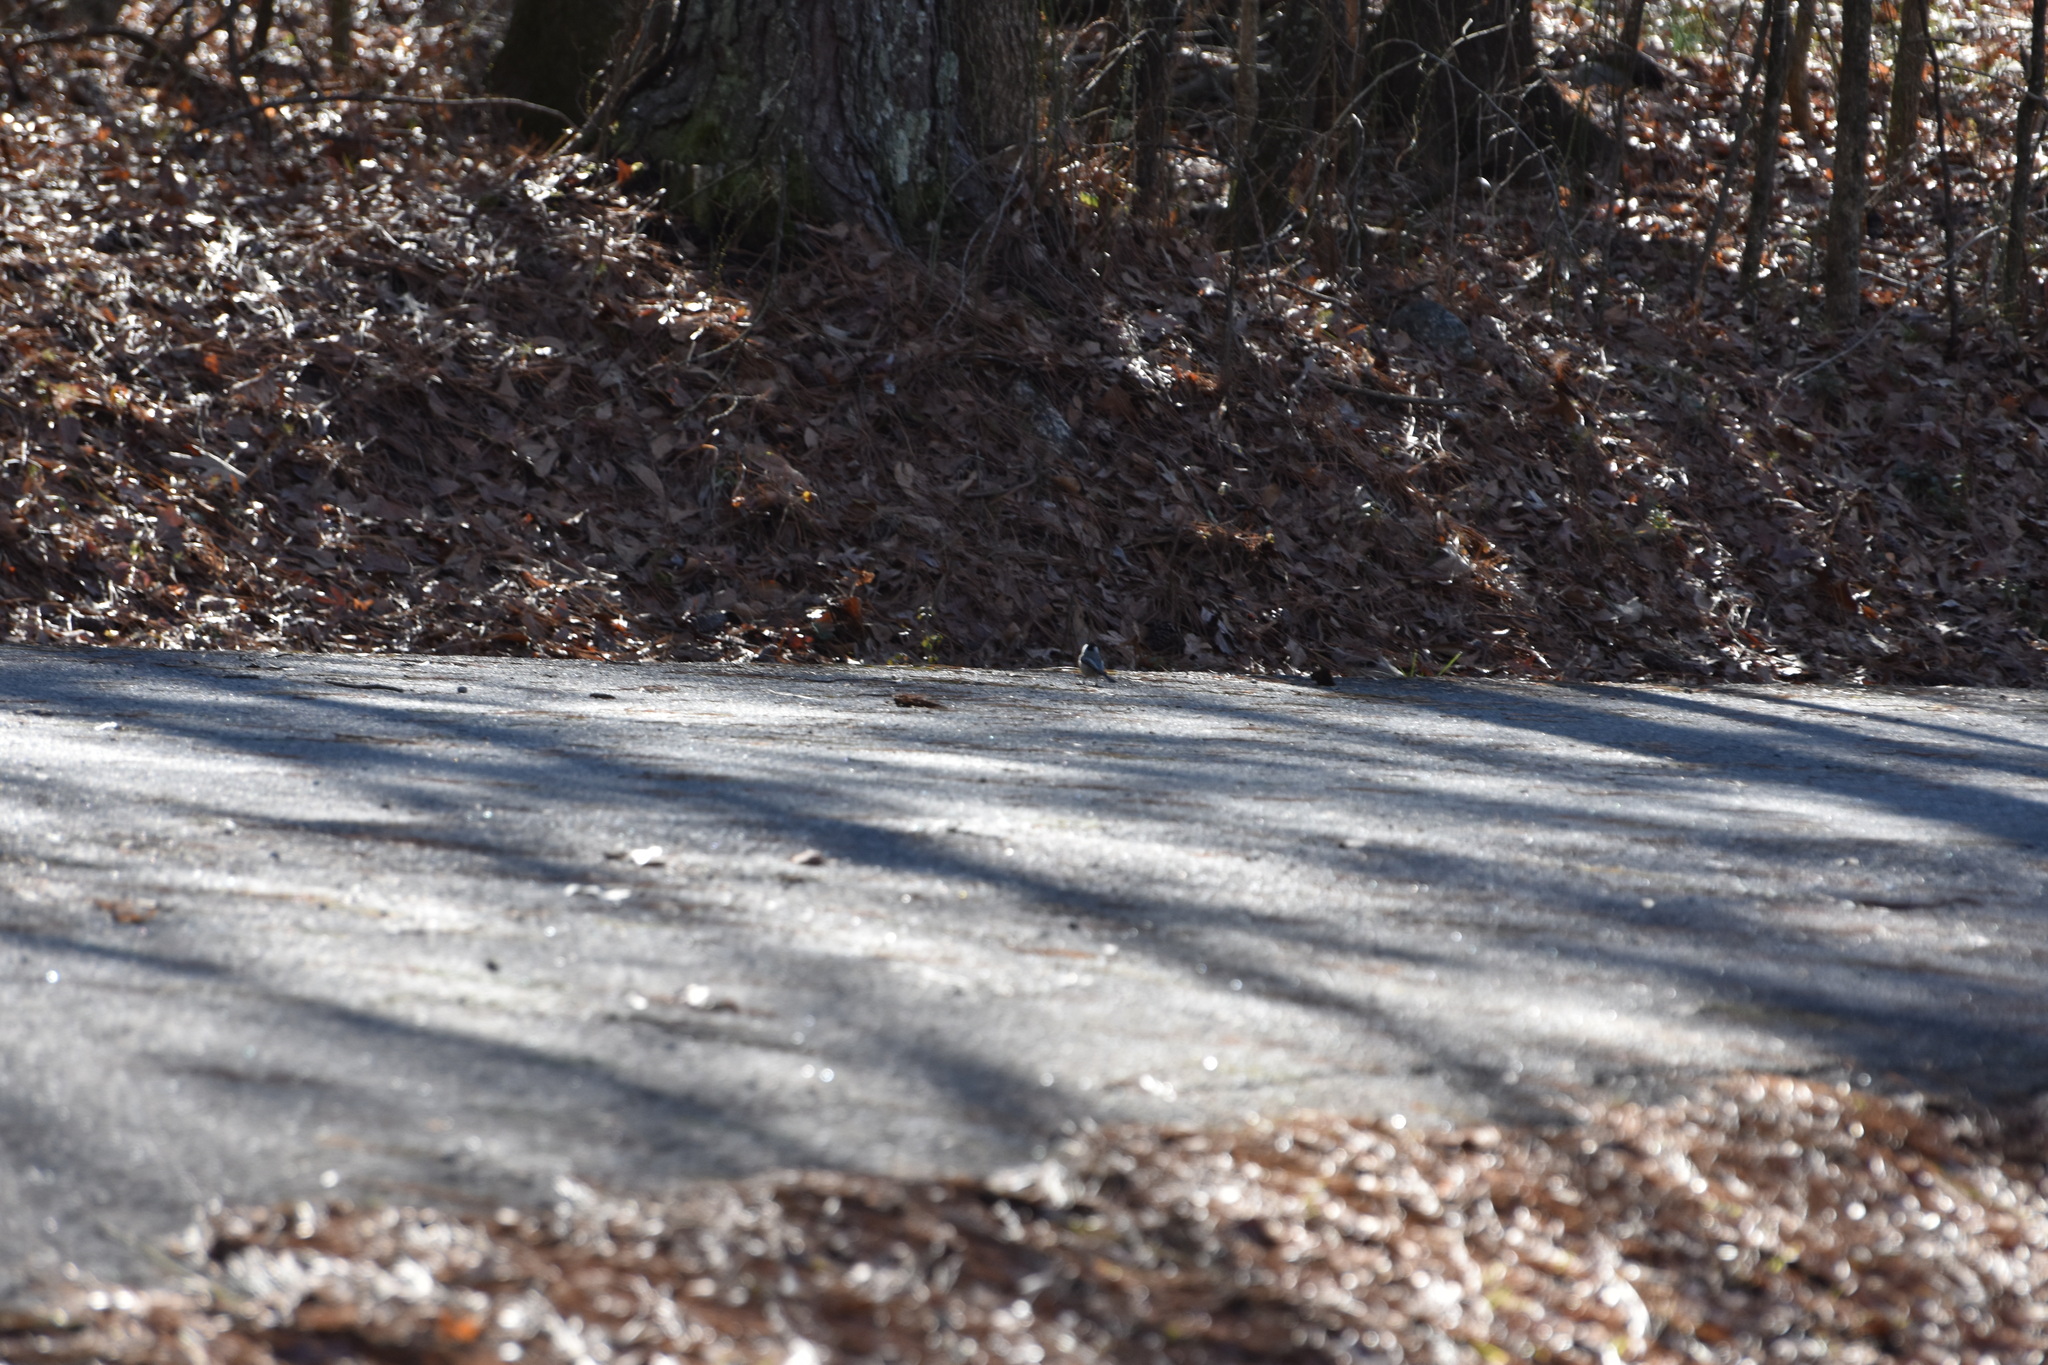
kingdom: Animalia
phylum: Chordata
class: Aves
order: Passeriformes
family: Paridae
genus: Poecile
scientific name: Poecile carolinensis
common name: Carolina chickadee
